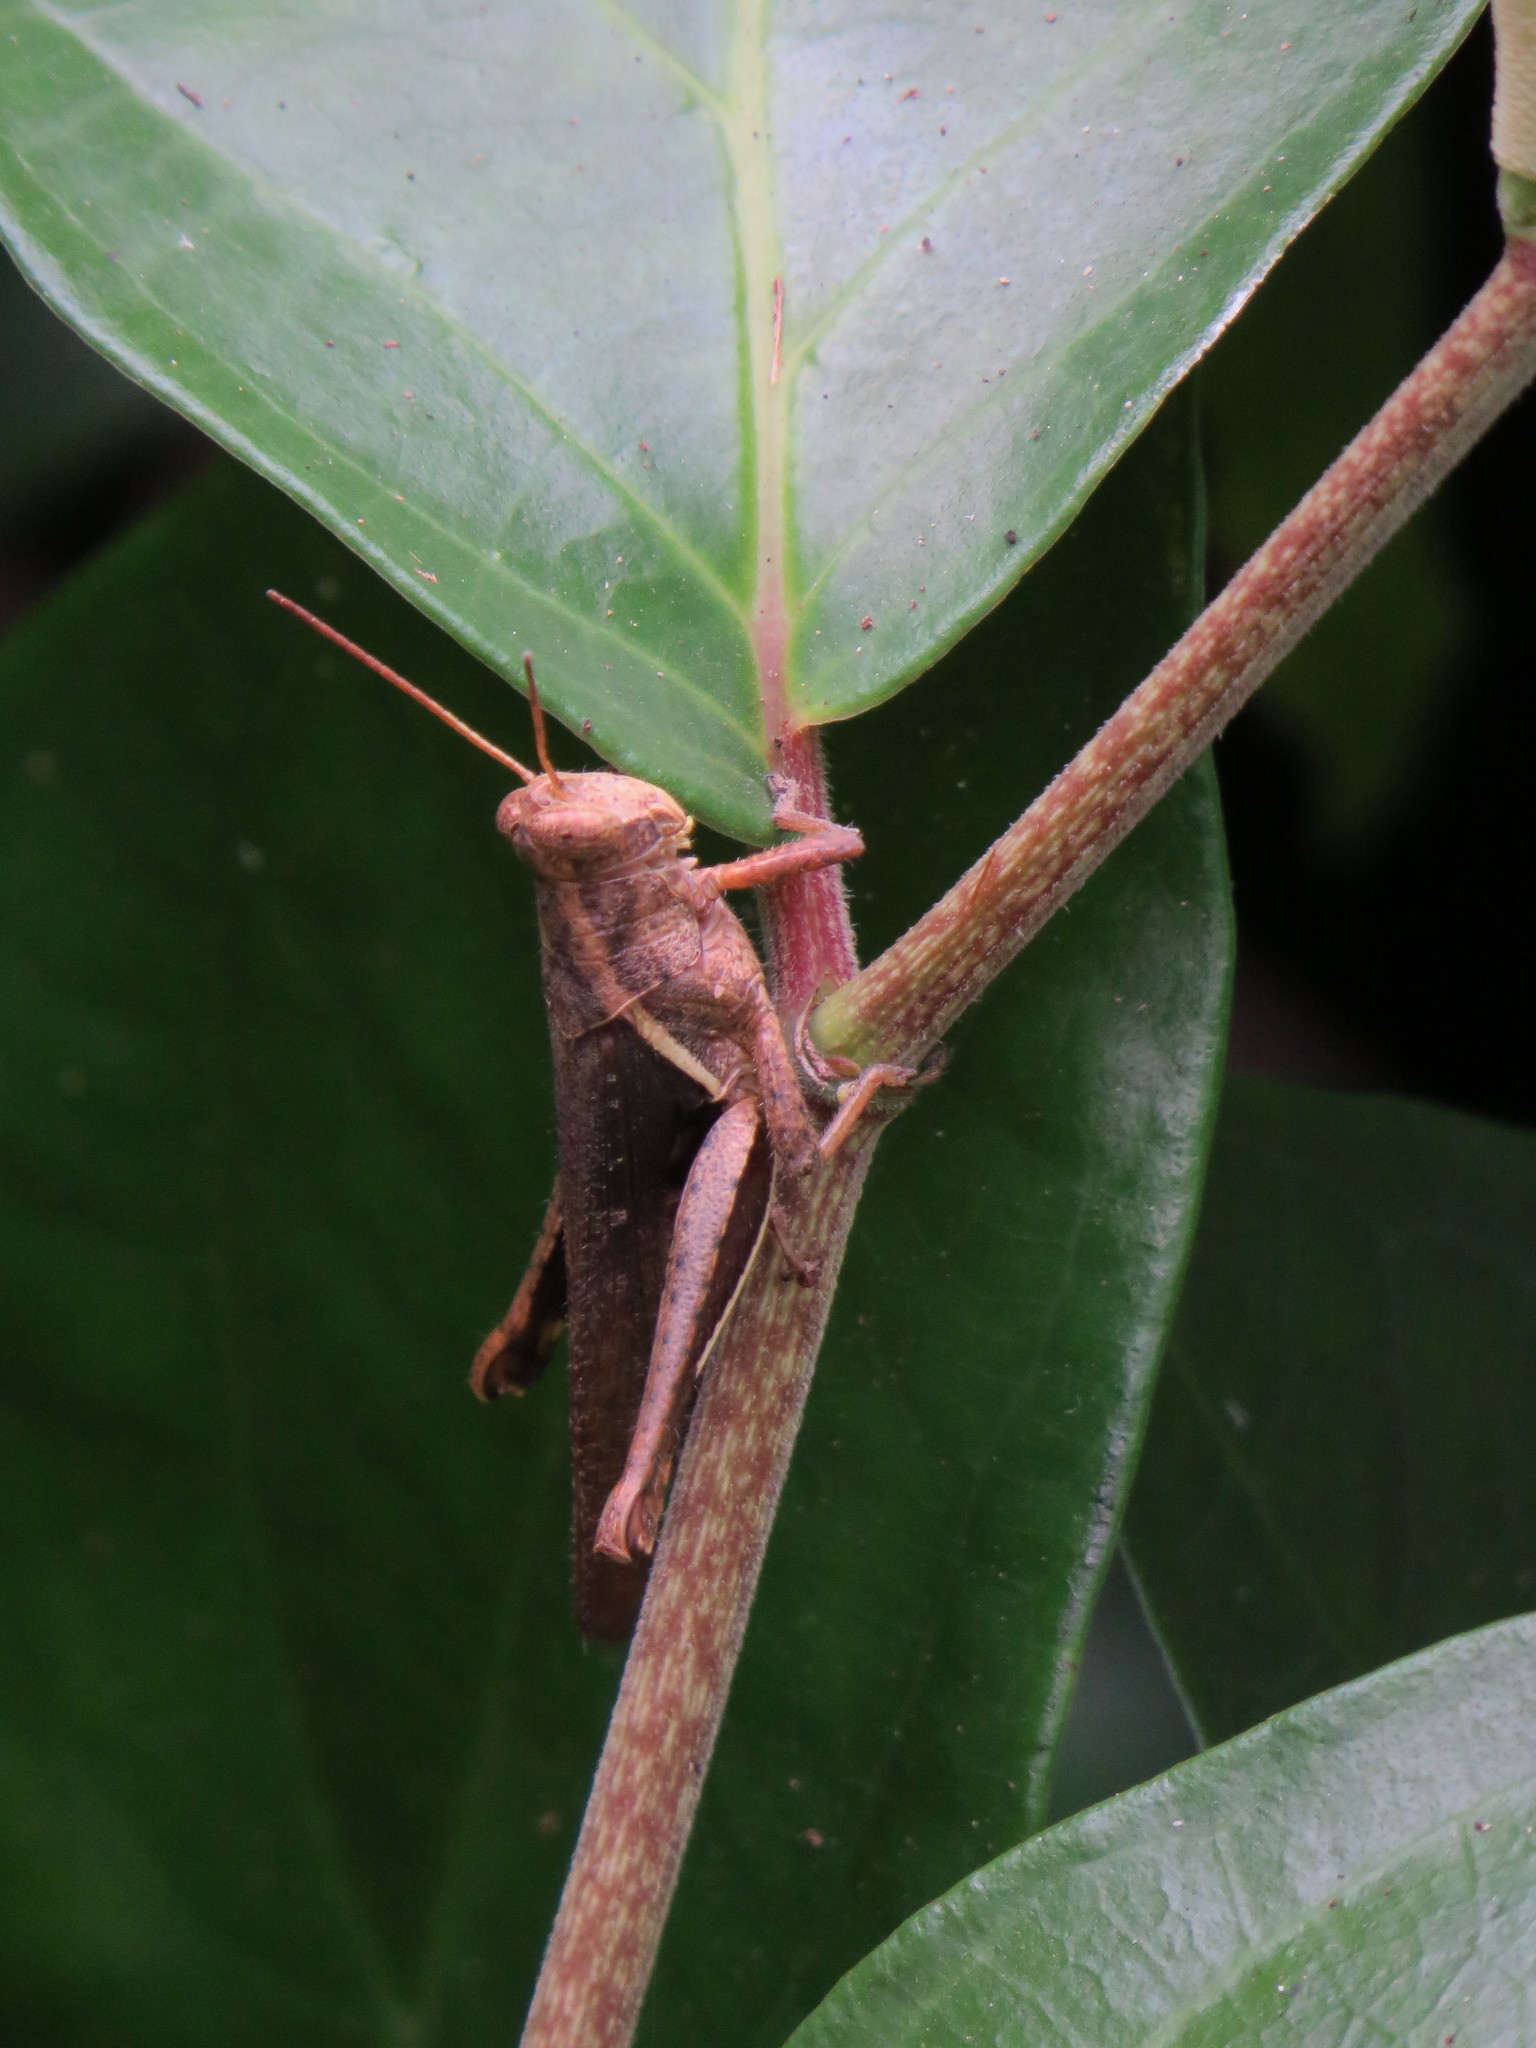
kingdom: Animalia
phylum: Arthropoda
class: Insecta
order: Orthoptera
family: Acrididae
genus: Abracris
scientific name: Abracris flavolineata
